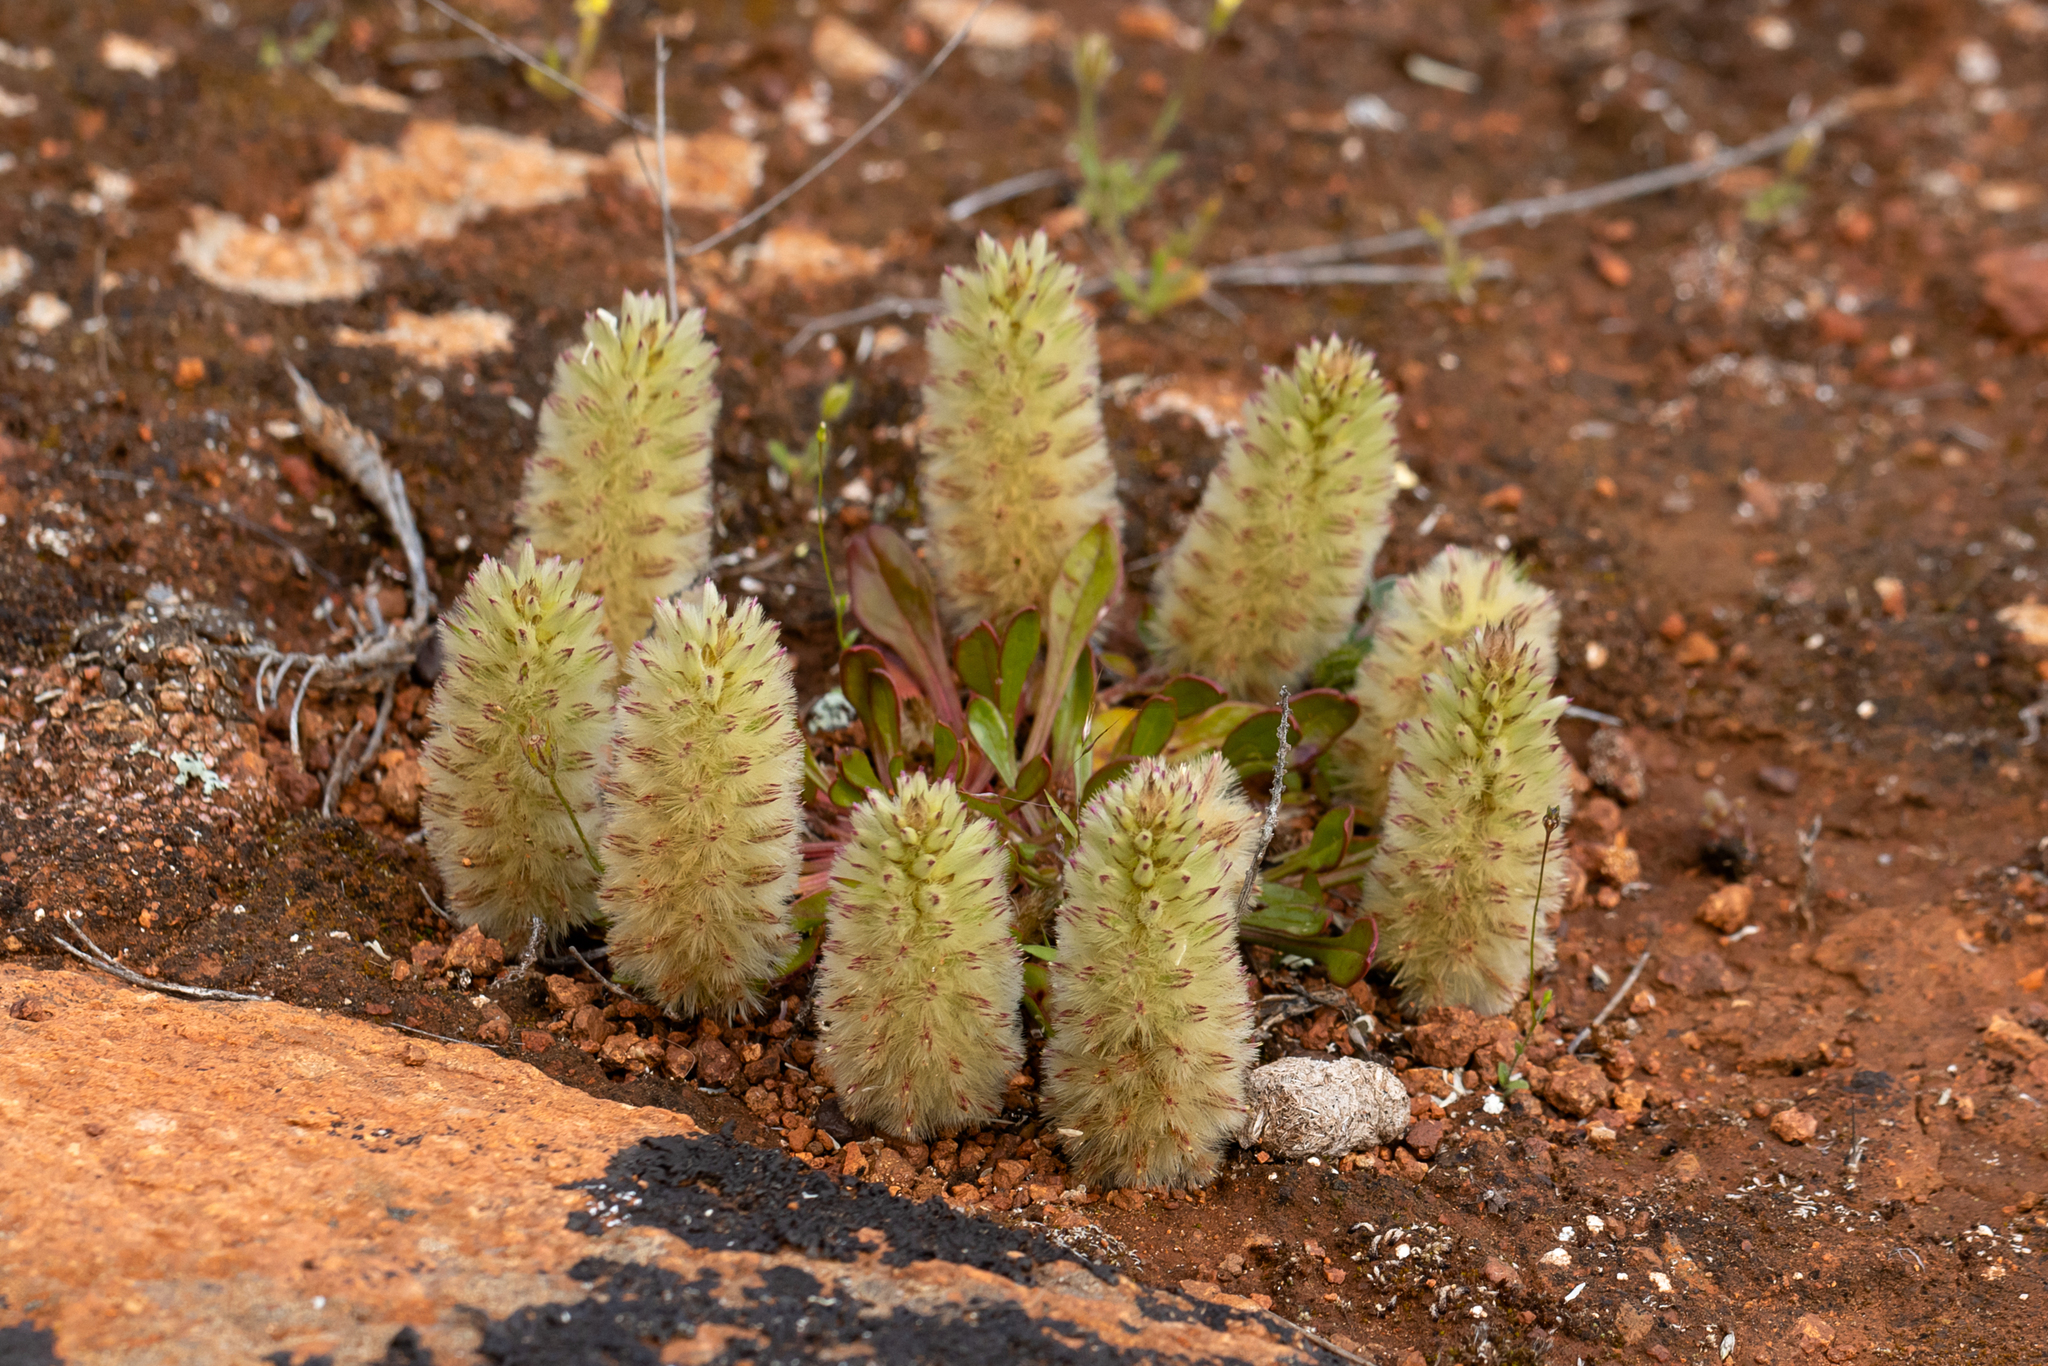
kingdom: Plantae
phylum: Tracheophyta
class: Magnoliopsida
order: Caryophyllales
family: Amaranthaceae
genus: Ptilotus
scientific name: Ptilotus spathulatus
